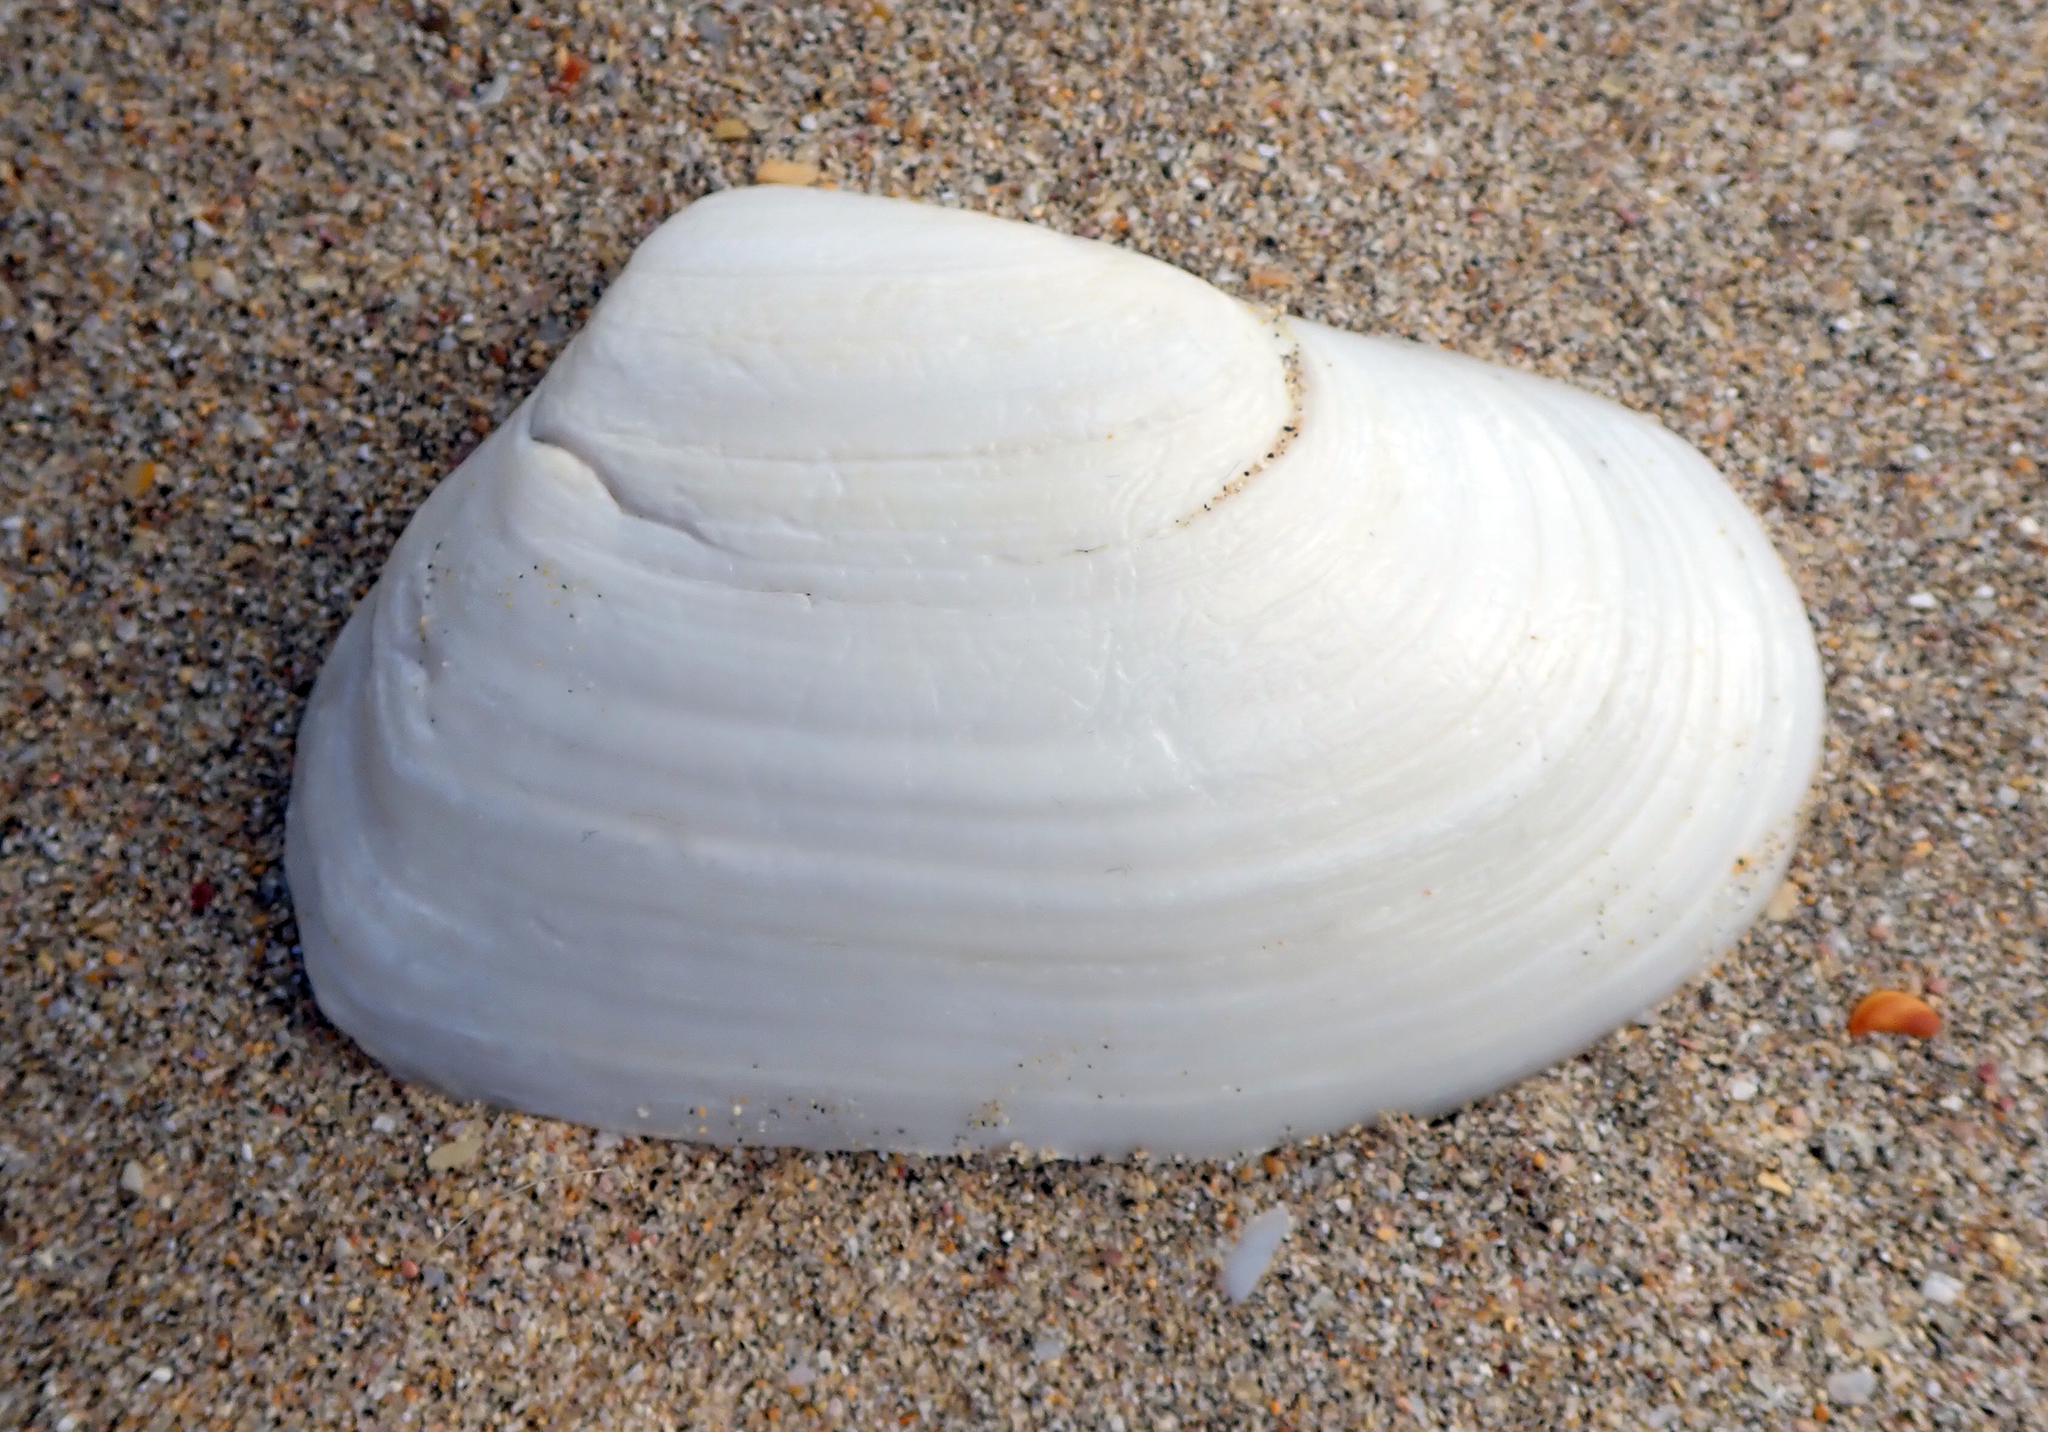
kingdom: Animalia
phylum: Mollusca
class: Bivalvia
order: Venerida
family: Mesodesmatidae
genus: Paphies
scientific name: Paphies subtriangulata
